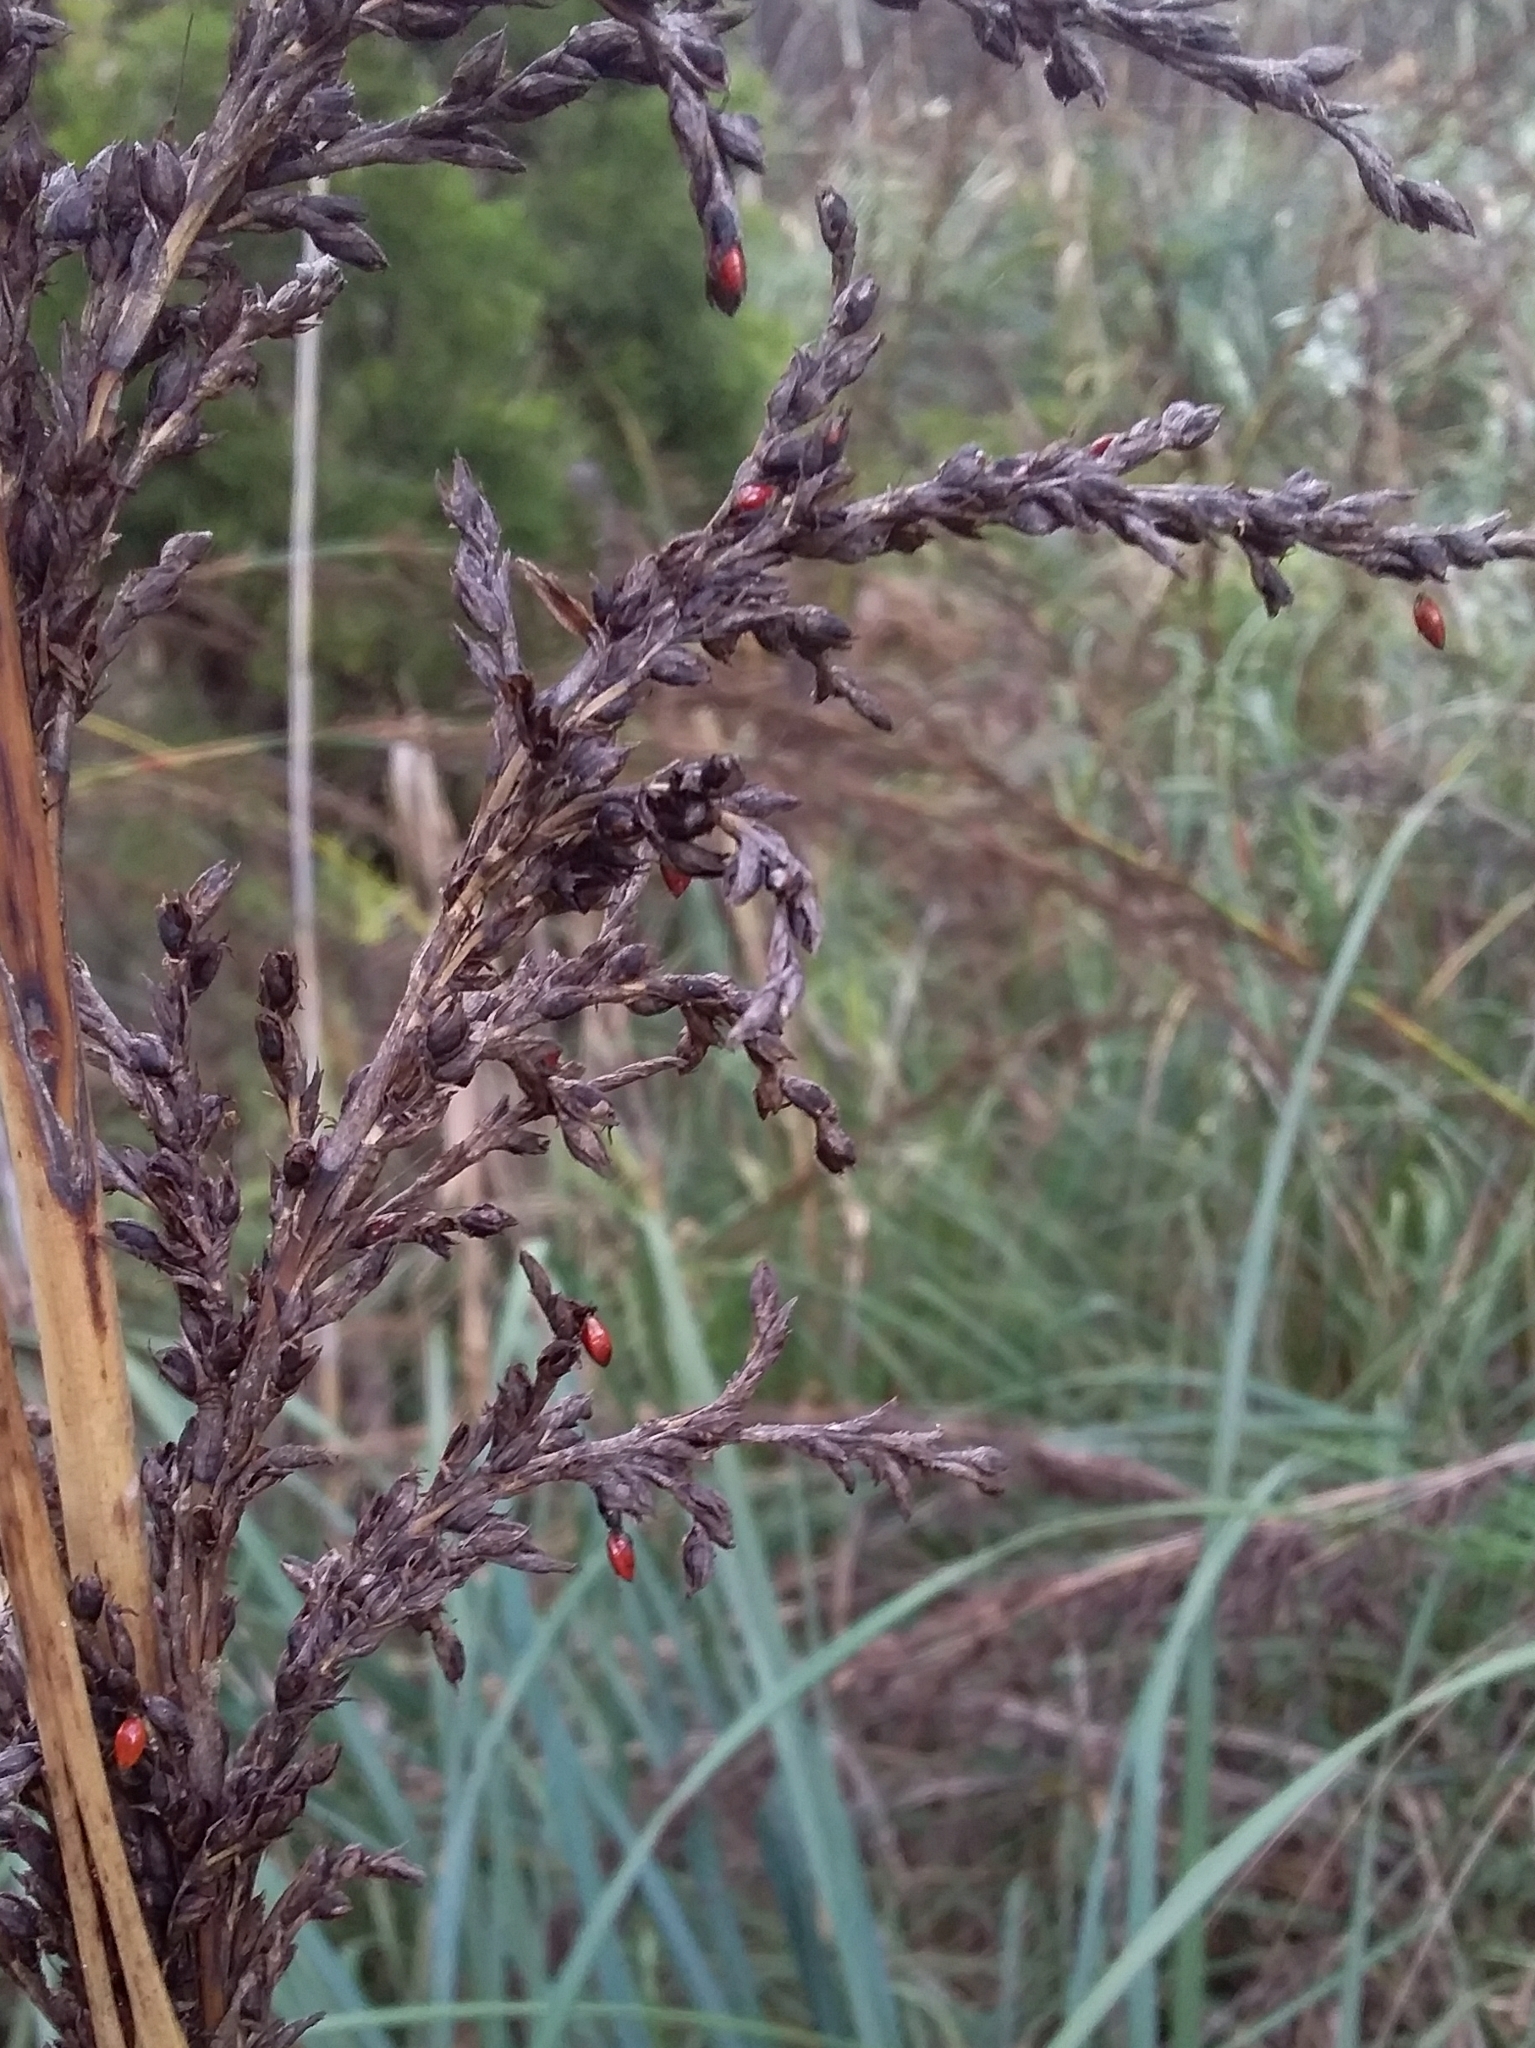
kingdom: Plantae
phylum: Tracheophyta
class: Liliopsida
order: Poales
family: Cyperaceae
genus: Gahnia
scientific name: Gahnia sieberiana
